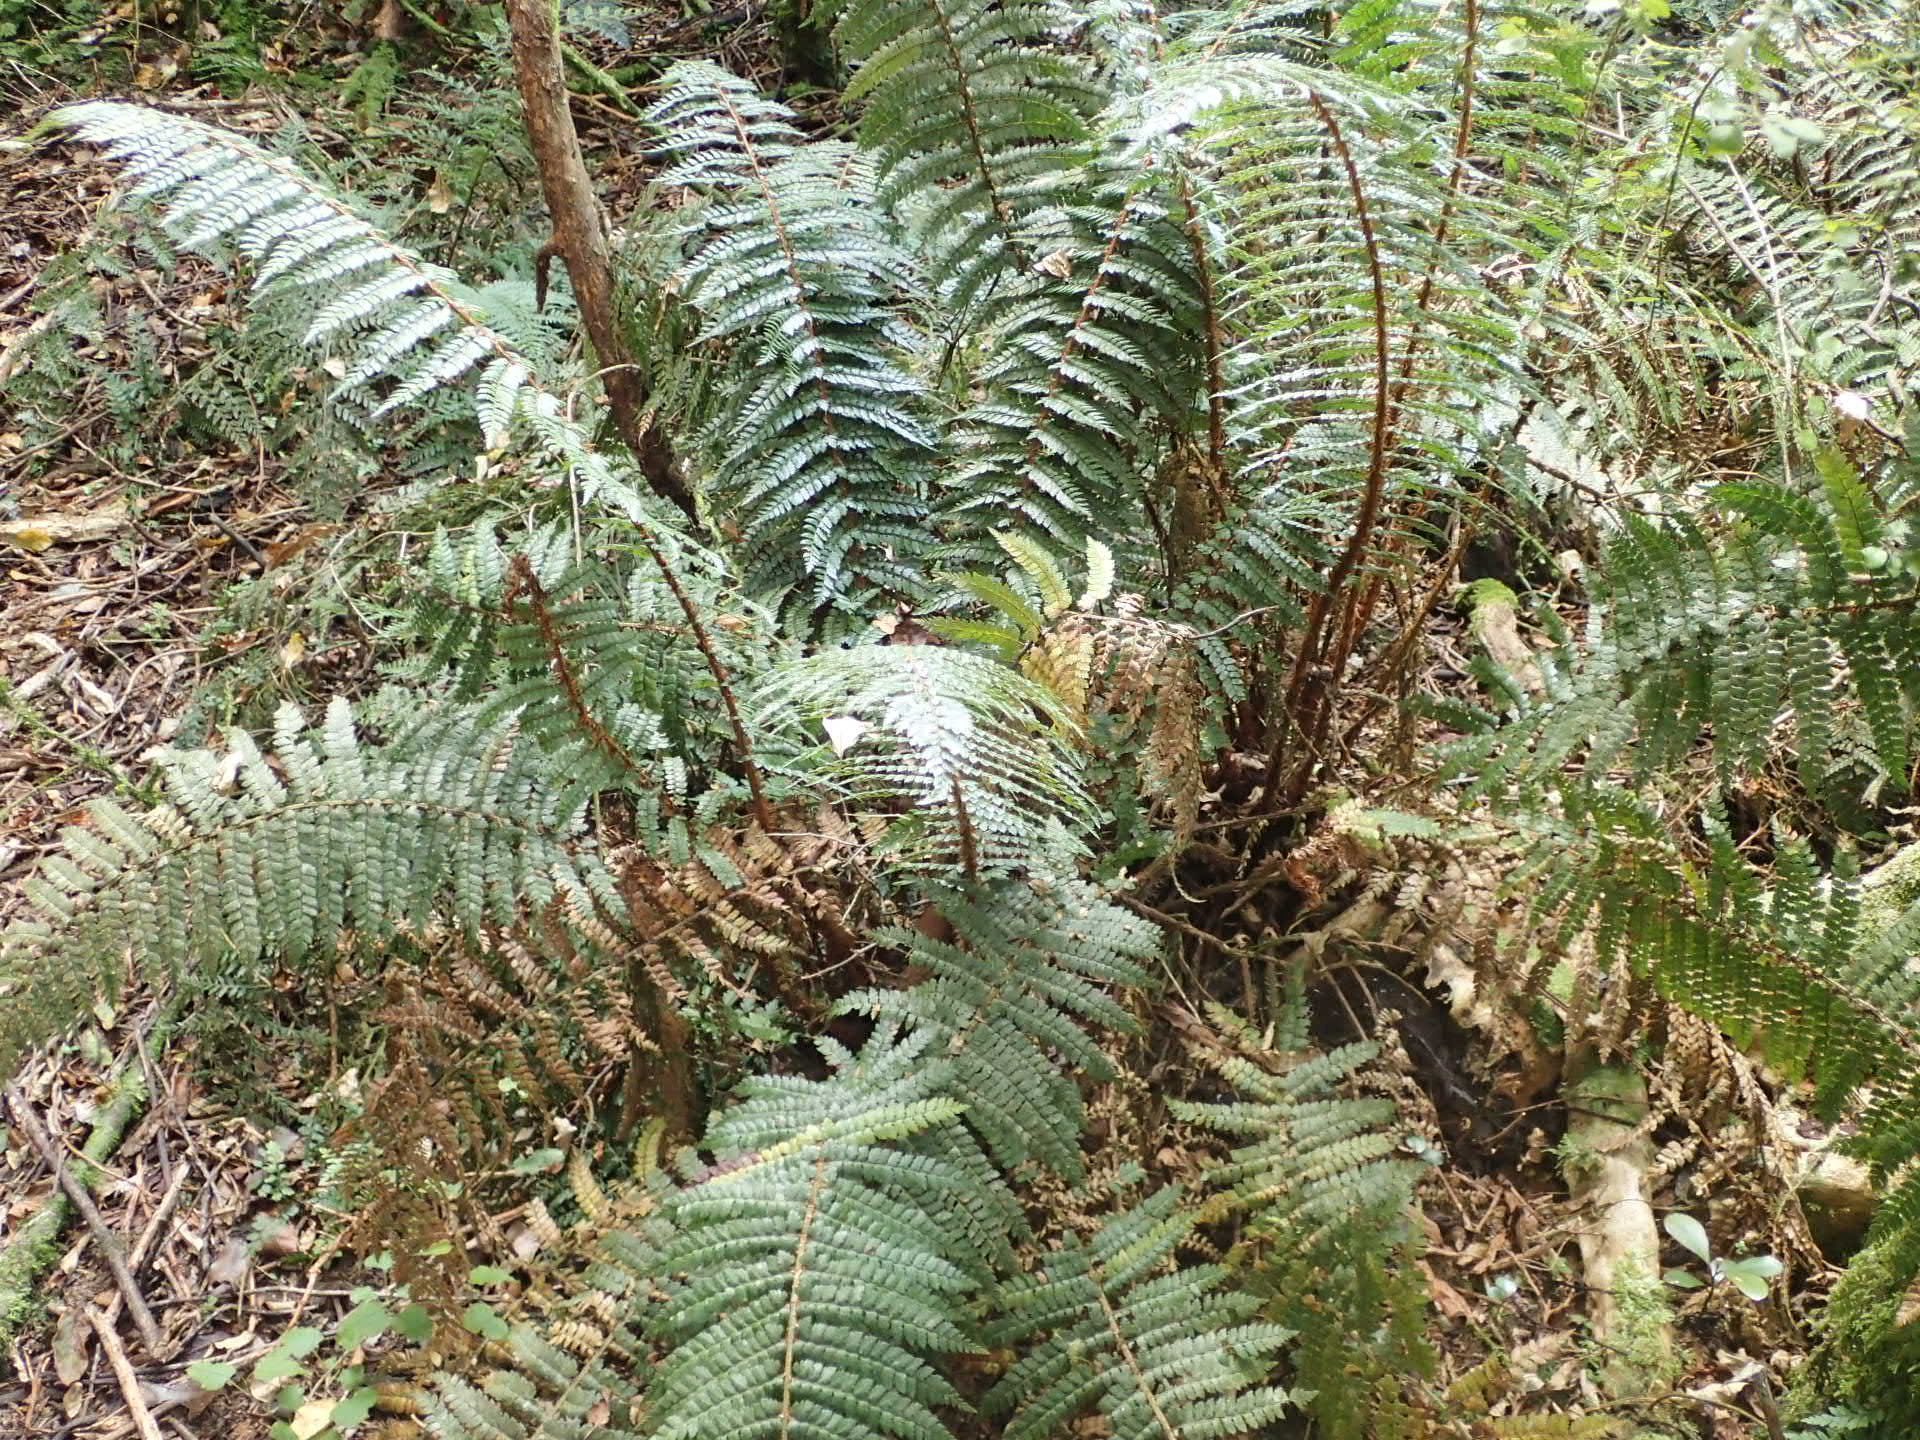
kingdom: Plantae
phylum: Tracheophyta
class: Polypodiopsida
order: Polypodiales
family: Dryopteridaceae
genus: Polystichum
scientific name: Polystichum vestitum
